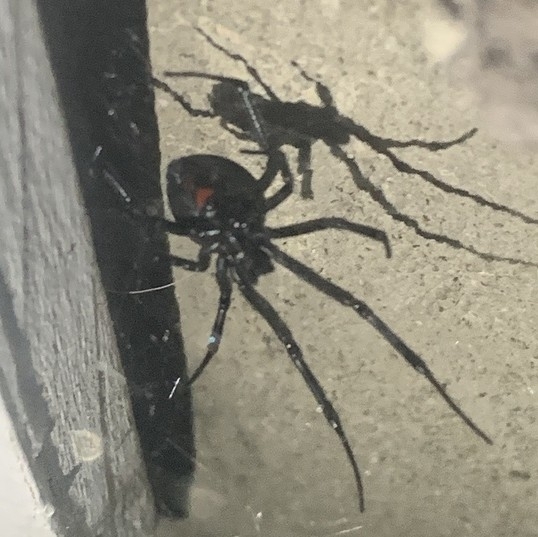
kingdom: Animalia
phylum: Arthropoda
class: Arachnida
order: Araneae
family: Theridiidae
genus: Latrodectus
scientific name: Latrodectus hesperus
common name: Western black widow
